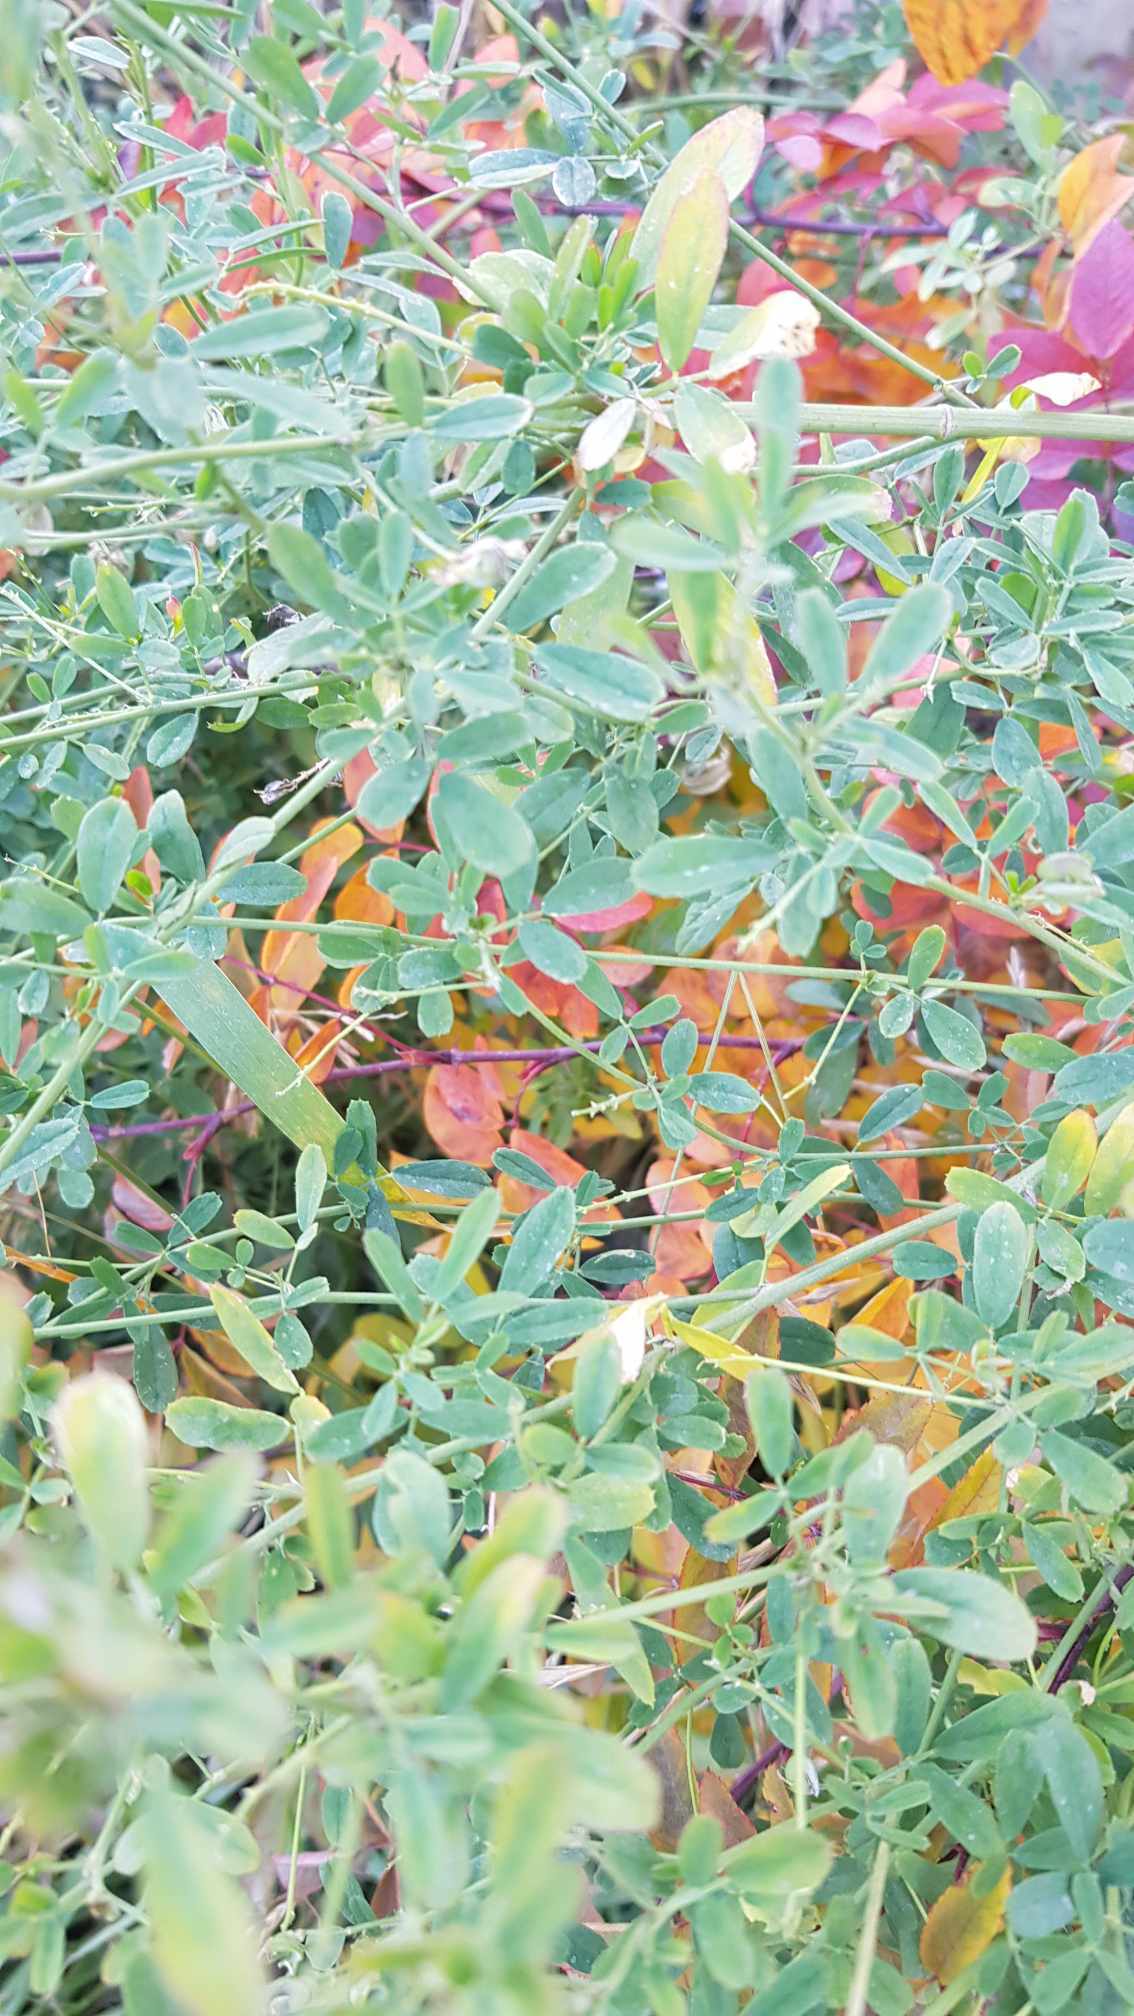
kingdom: Plantae
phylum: Tracheophyta
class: Magnoliopsida
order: Fabales
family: Fabaceae
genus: Medicago
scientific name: Medicago sativa
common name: Alfalfa
